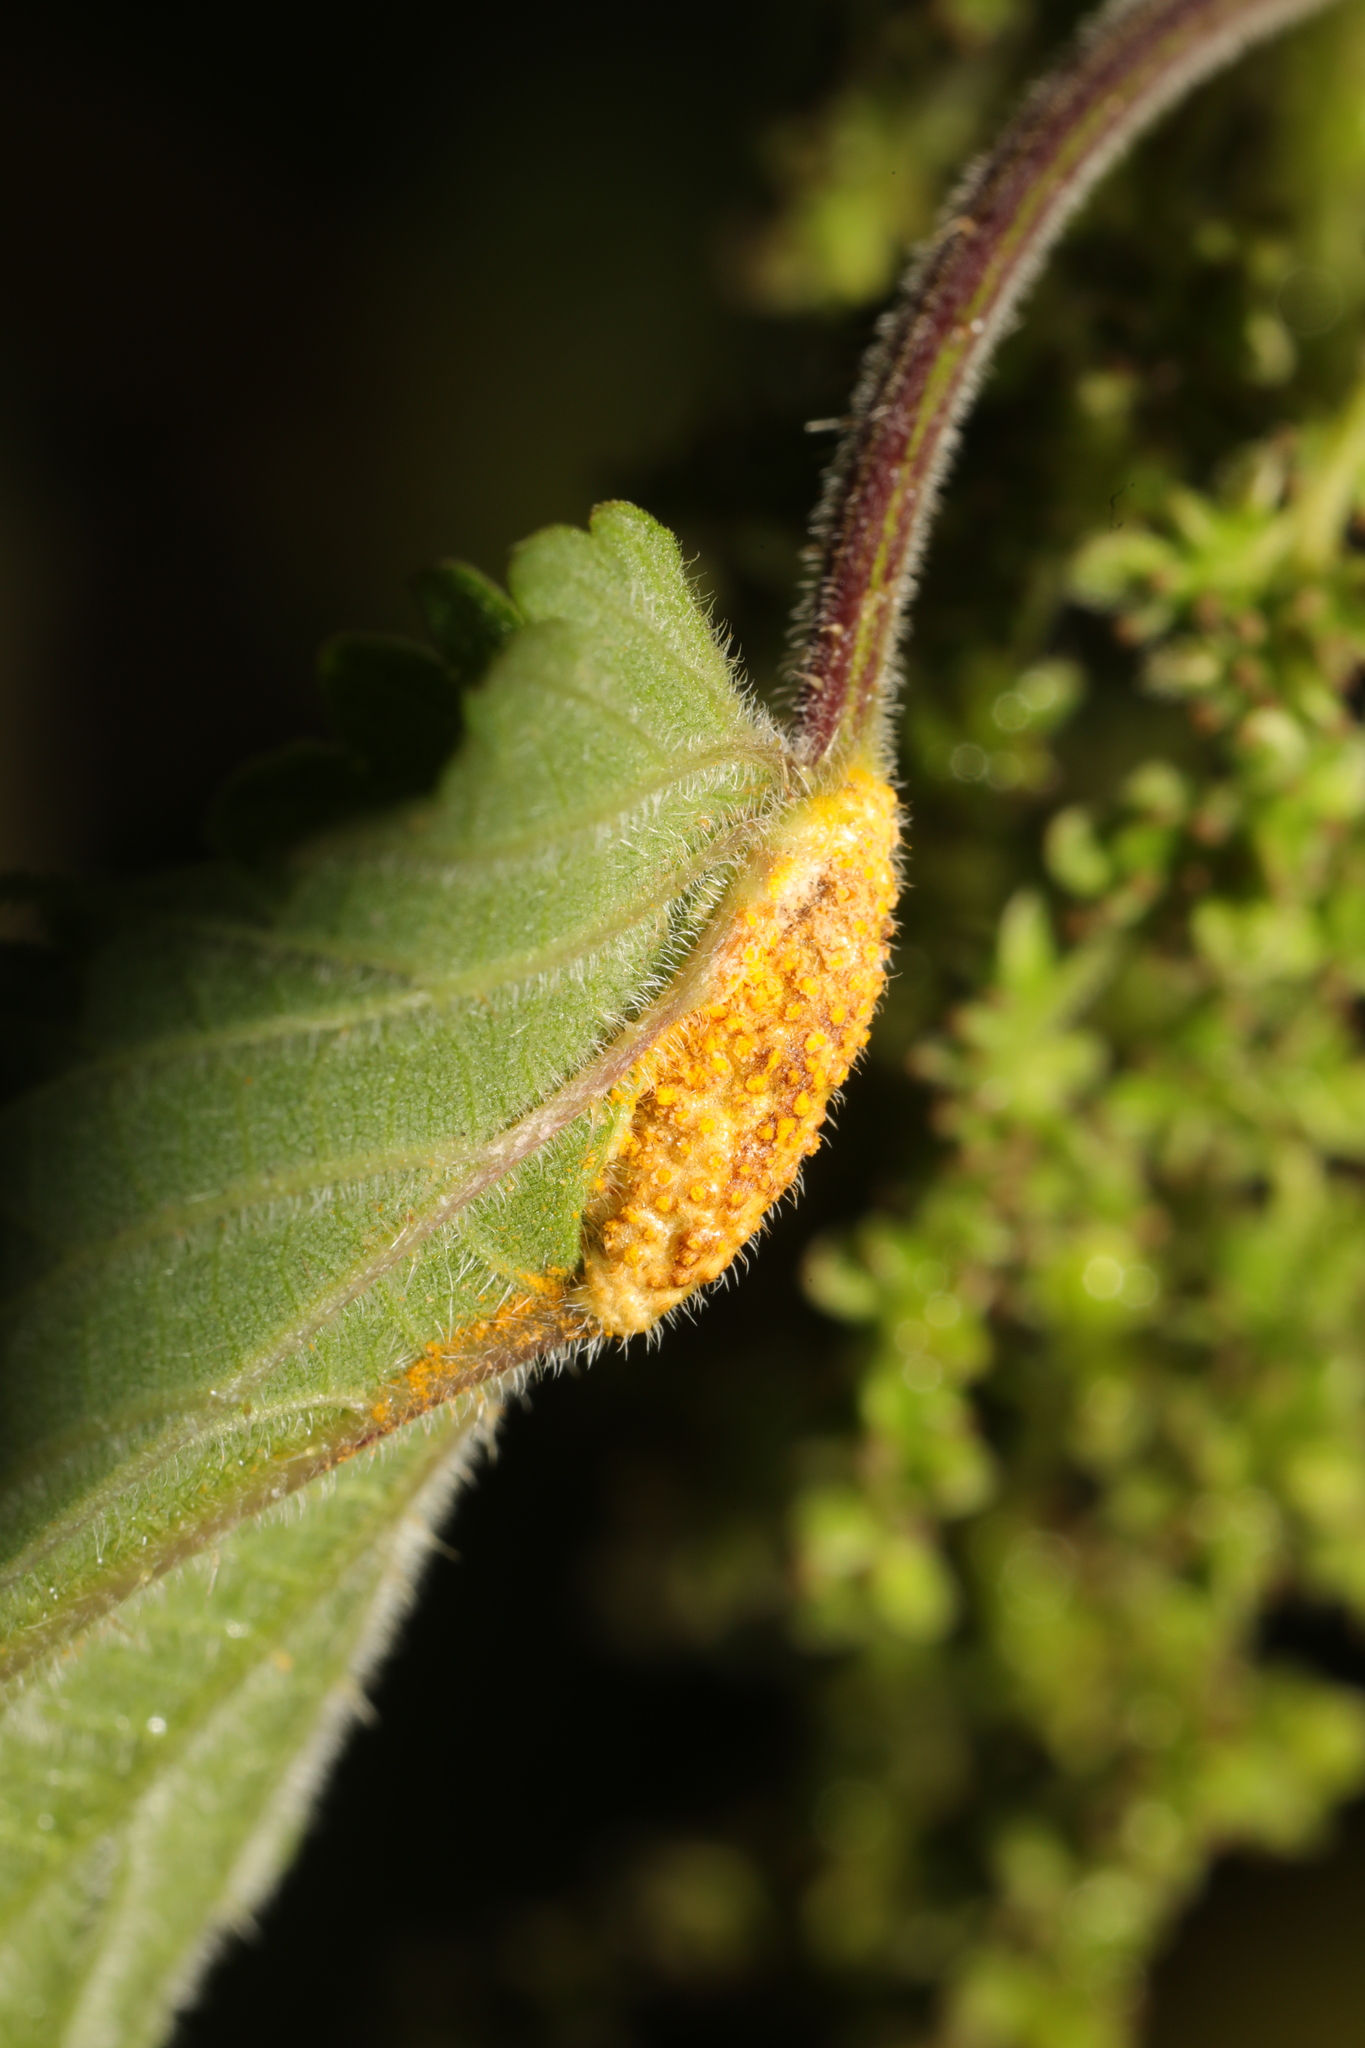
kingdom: Fungi
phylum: Basidiomycota
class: Pucciniomycetes
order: Pucciniales
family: Pucciniaceae
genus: Puccinia
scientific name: Puccinia urticata
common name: Nettle clustercup rust fungus
